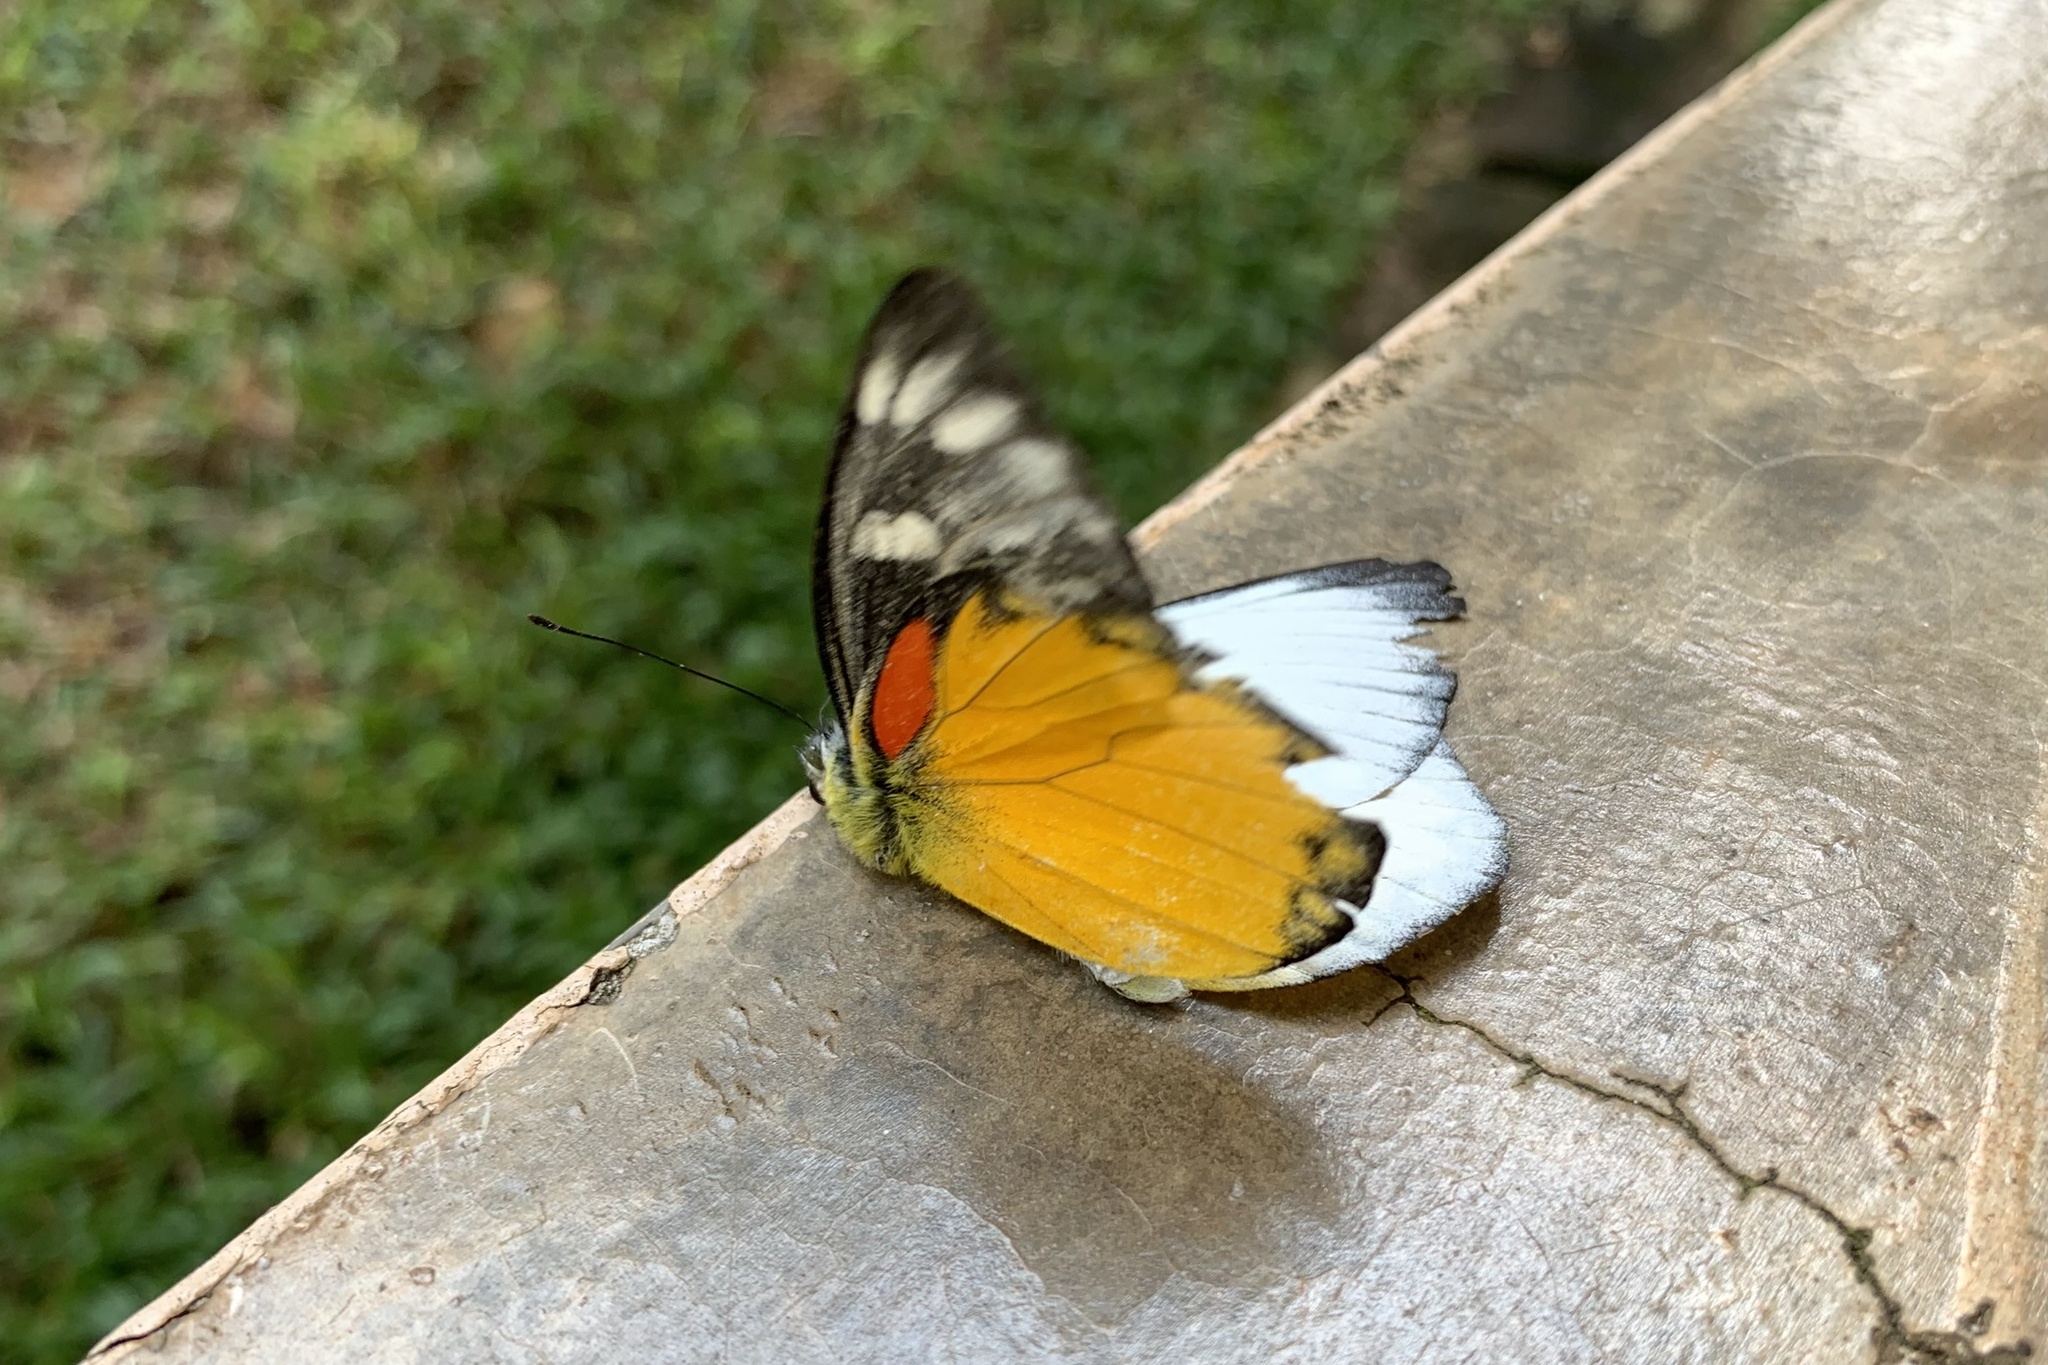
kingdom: Animalia
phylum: Arthropoda
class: Insecta
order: Lepidoptera
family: Pieridae
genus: Delias
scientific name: Delias descombesi
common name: Red-spot jezebel
